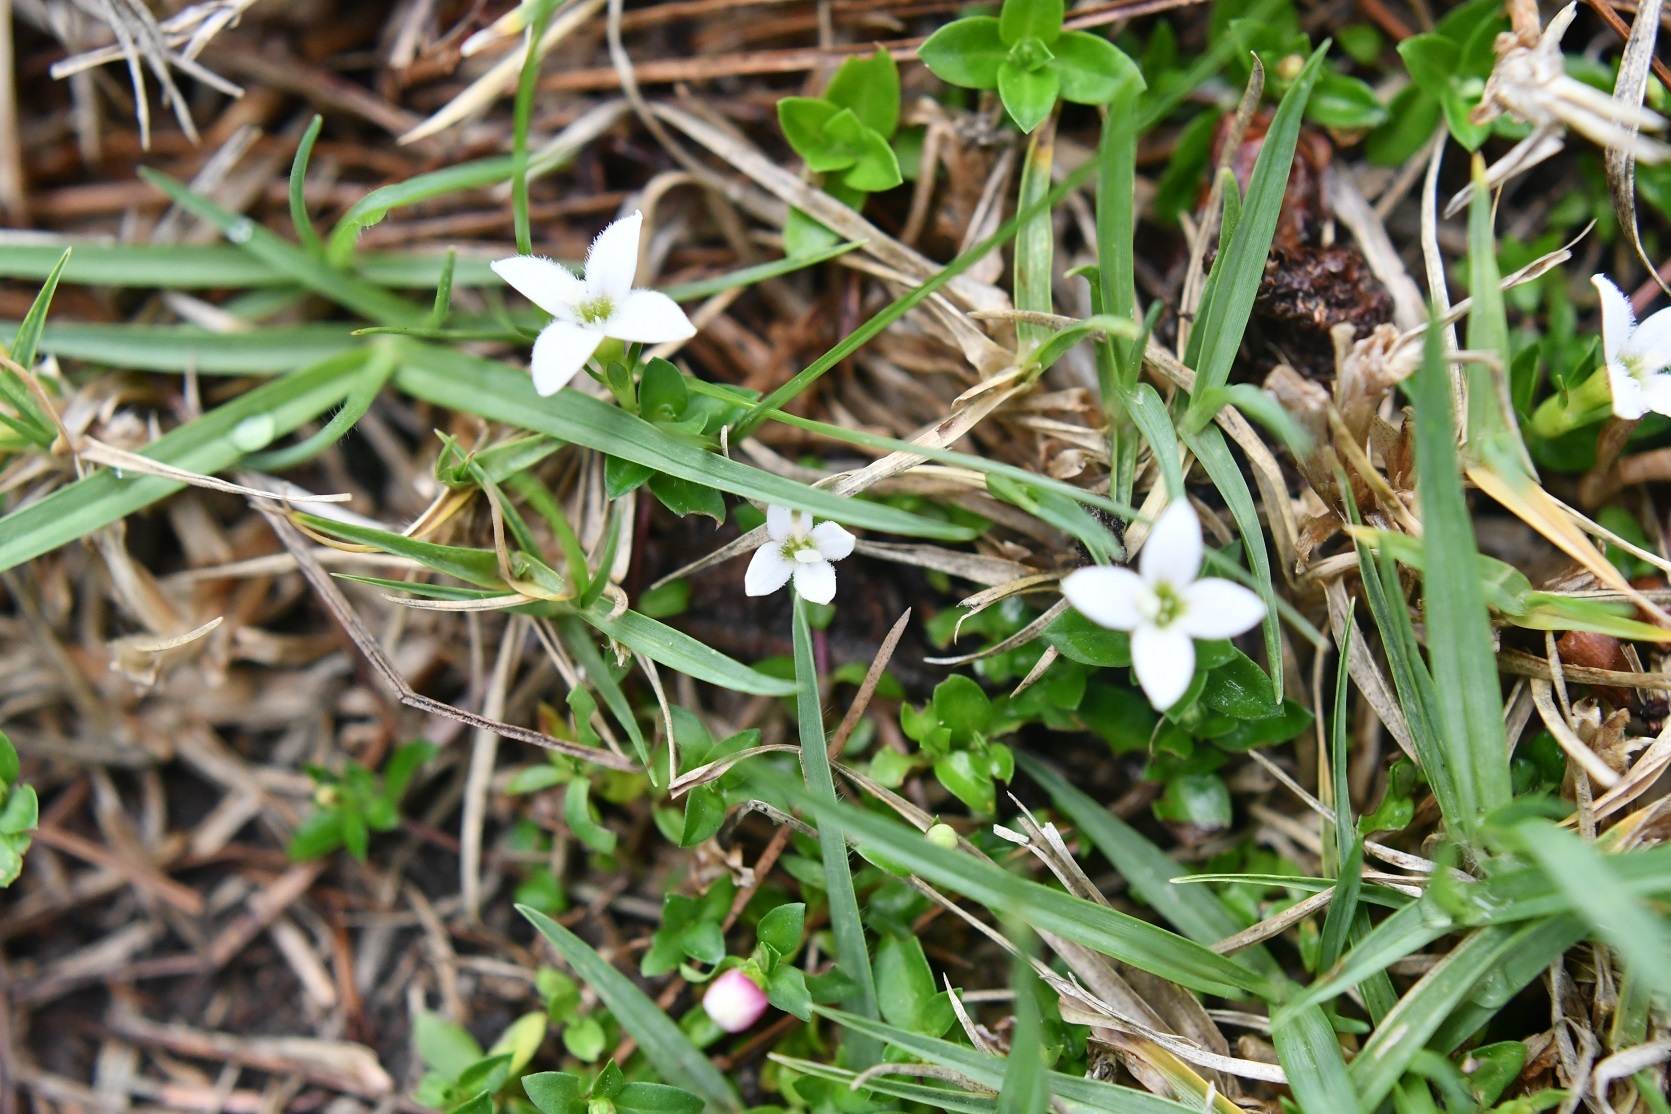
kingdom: Plantae
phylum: Tracheophyta
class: Magnoliopsida
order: Gentianales
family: Rubiaceae
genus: Arcytophyllum
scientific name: Arcytophyllum serpyllaceum
